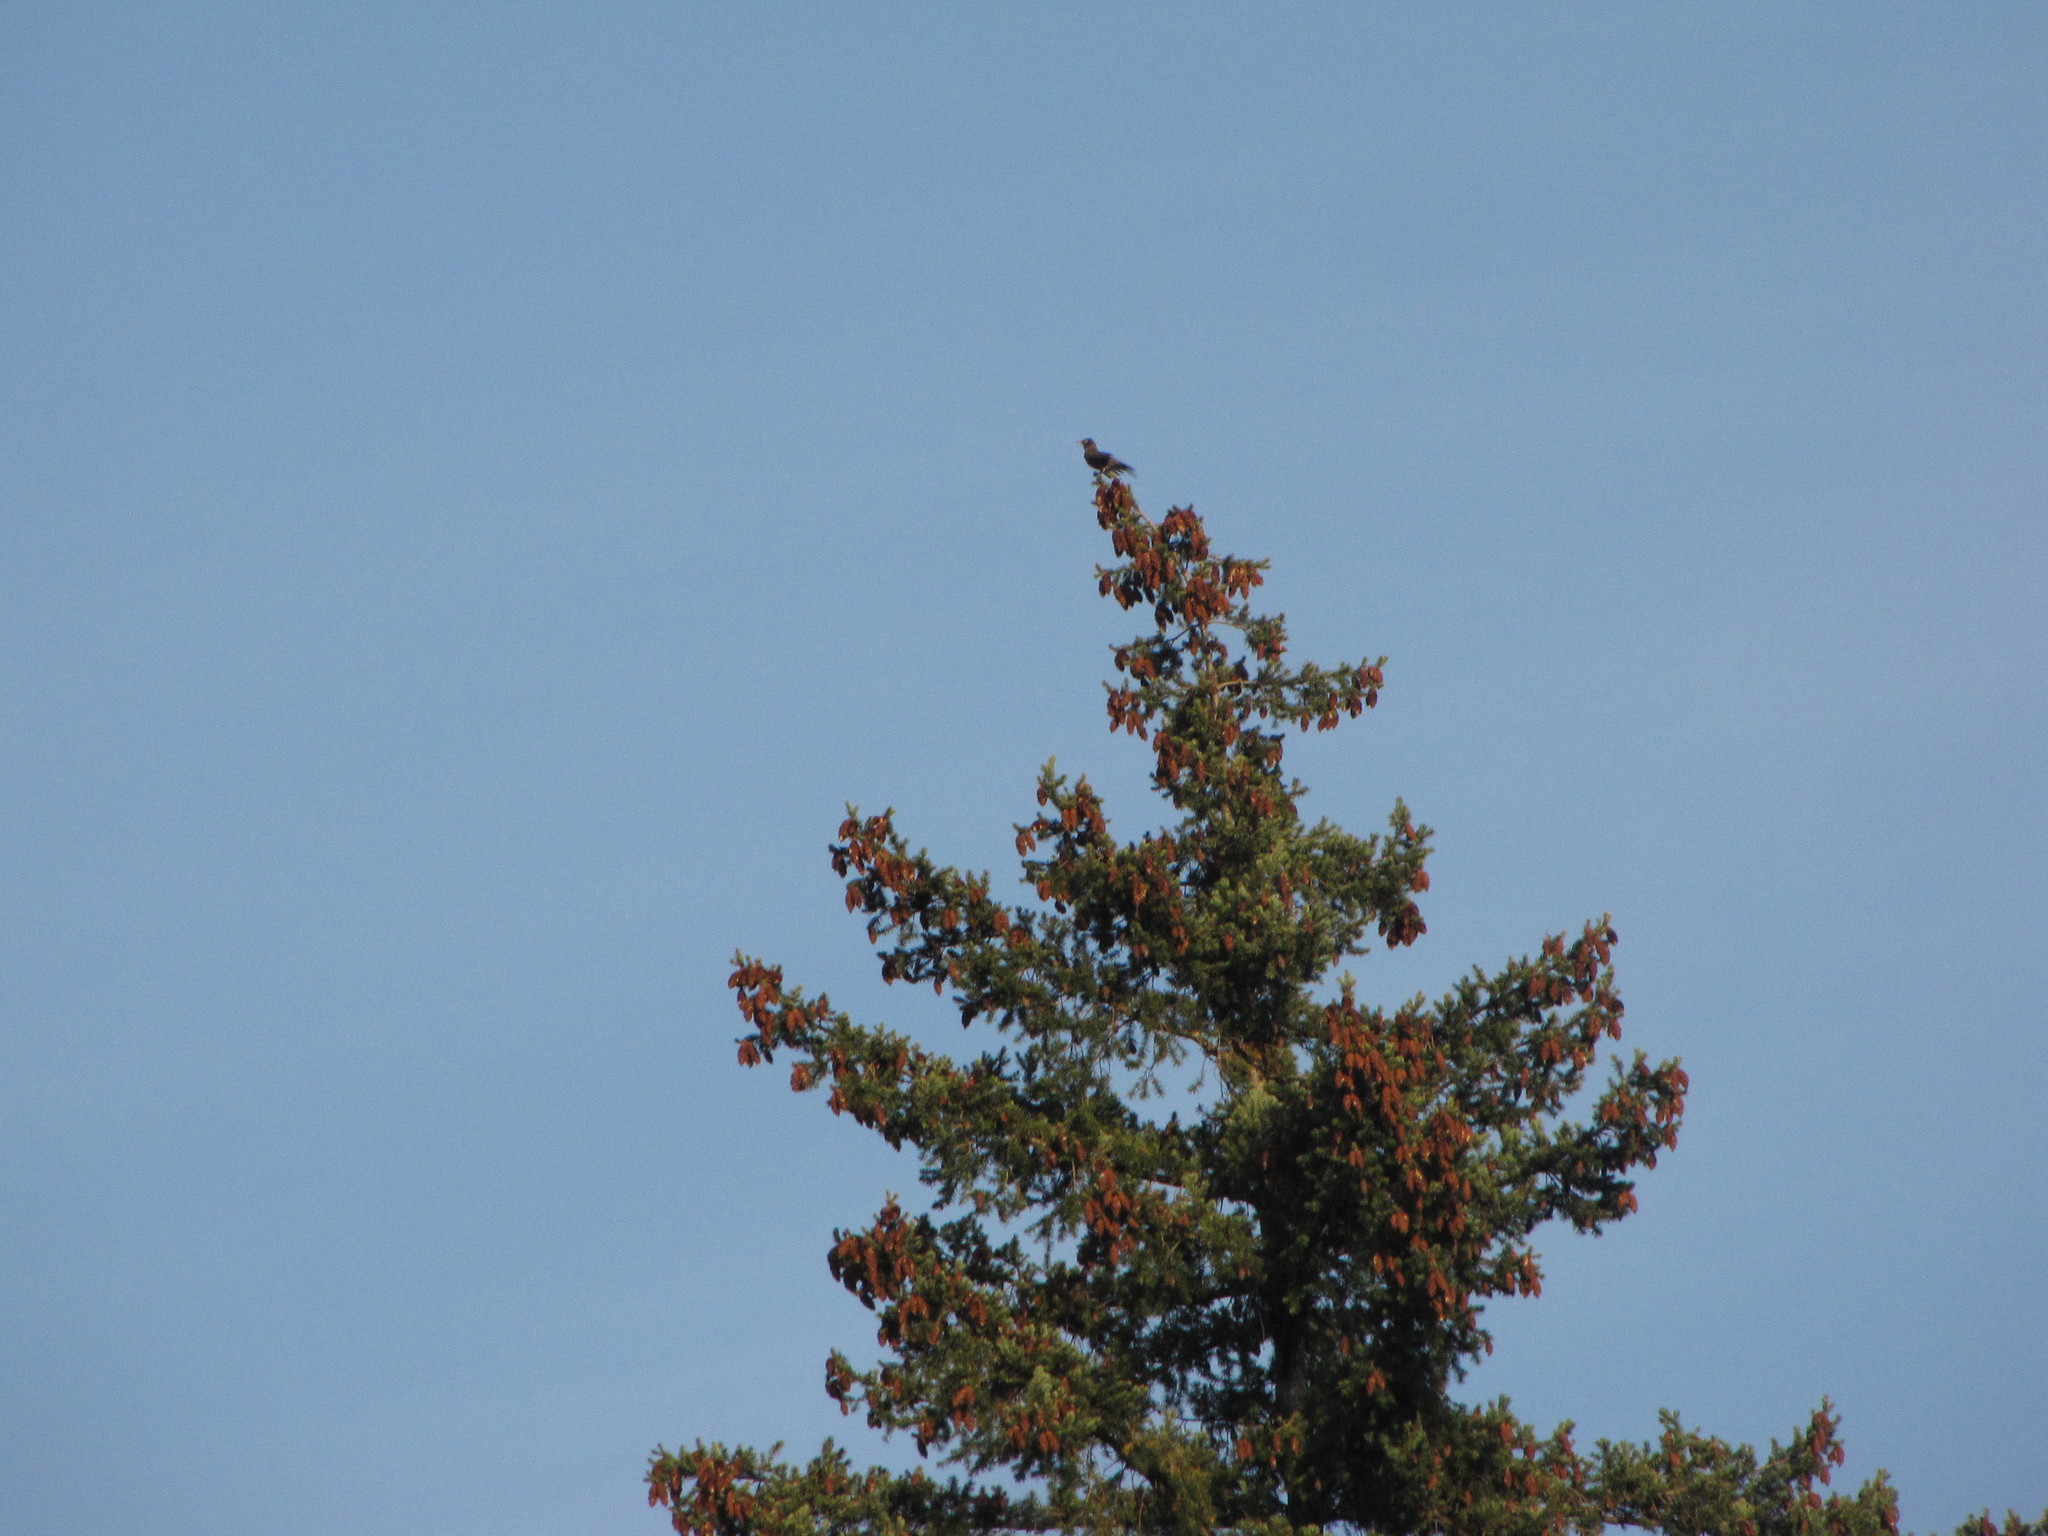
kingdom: Animalia
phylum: Chordata
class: Aves
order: Passeriformes
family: Turdidae
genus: Turdus
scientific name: Turdus migratorius
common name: American robin
